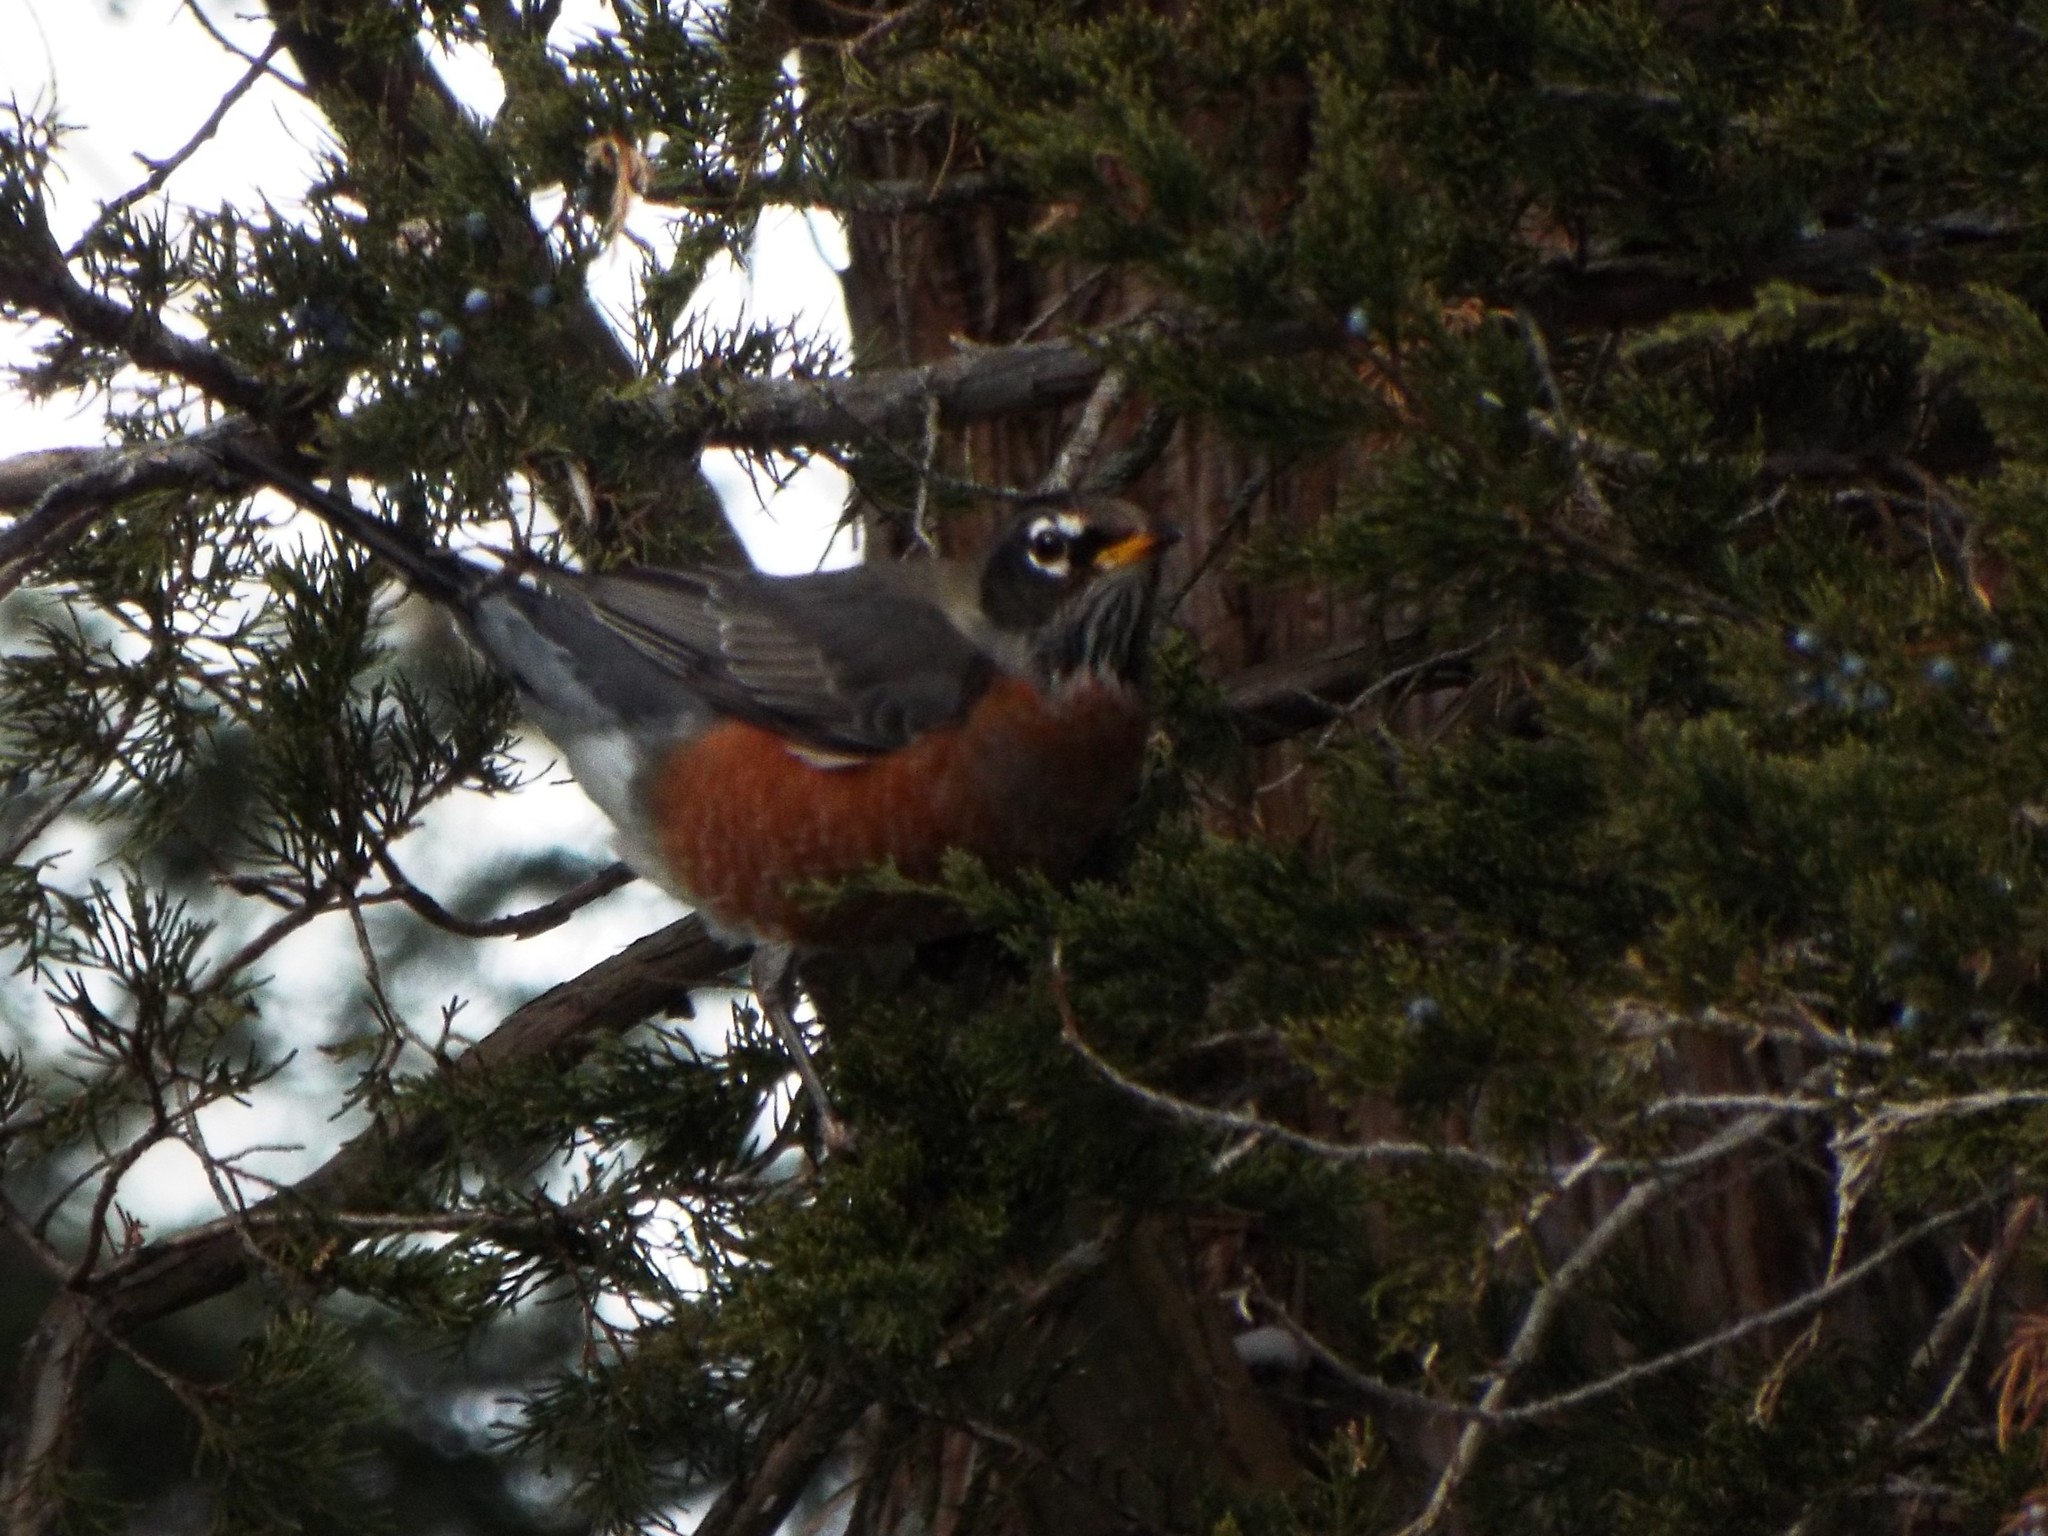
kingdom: Animalia
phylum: Chordata
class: Aves
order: Passeriformes
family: Turdidae
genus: Turdus
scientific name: Turdus migratorius
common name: American robin
